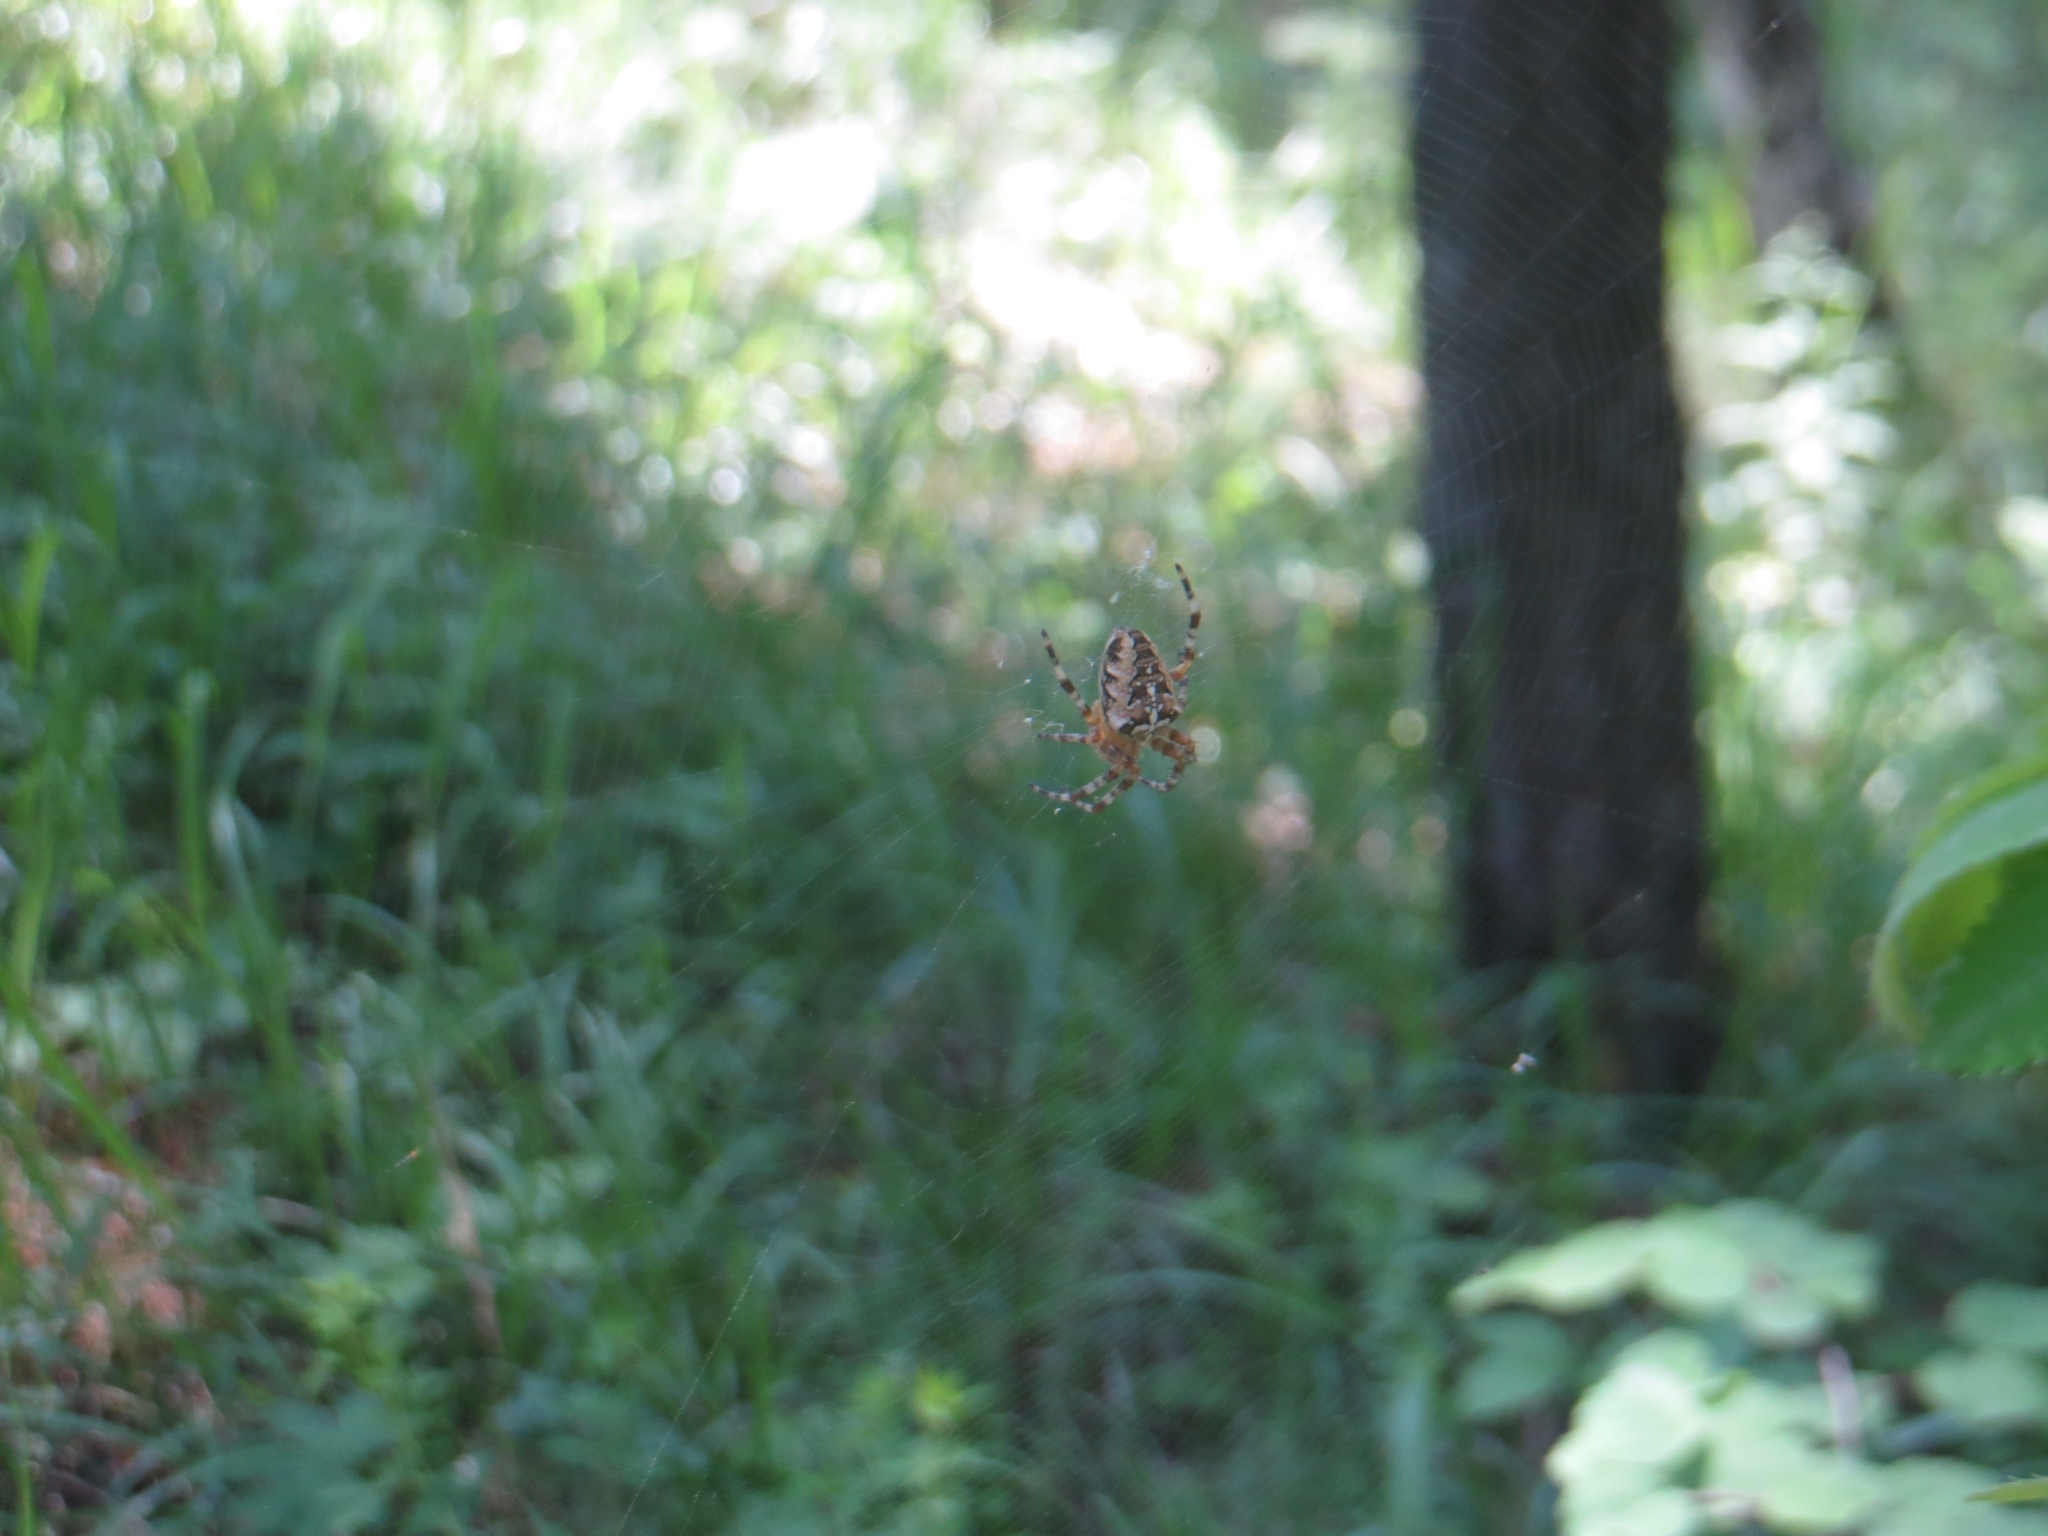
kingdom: Animalia
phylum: Arthropoda
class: Arachnida
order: Araneae
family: Araneidae
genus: Araneus
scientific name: Araneus diadematus
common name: Cross orbweaver
